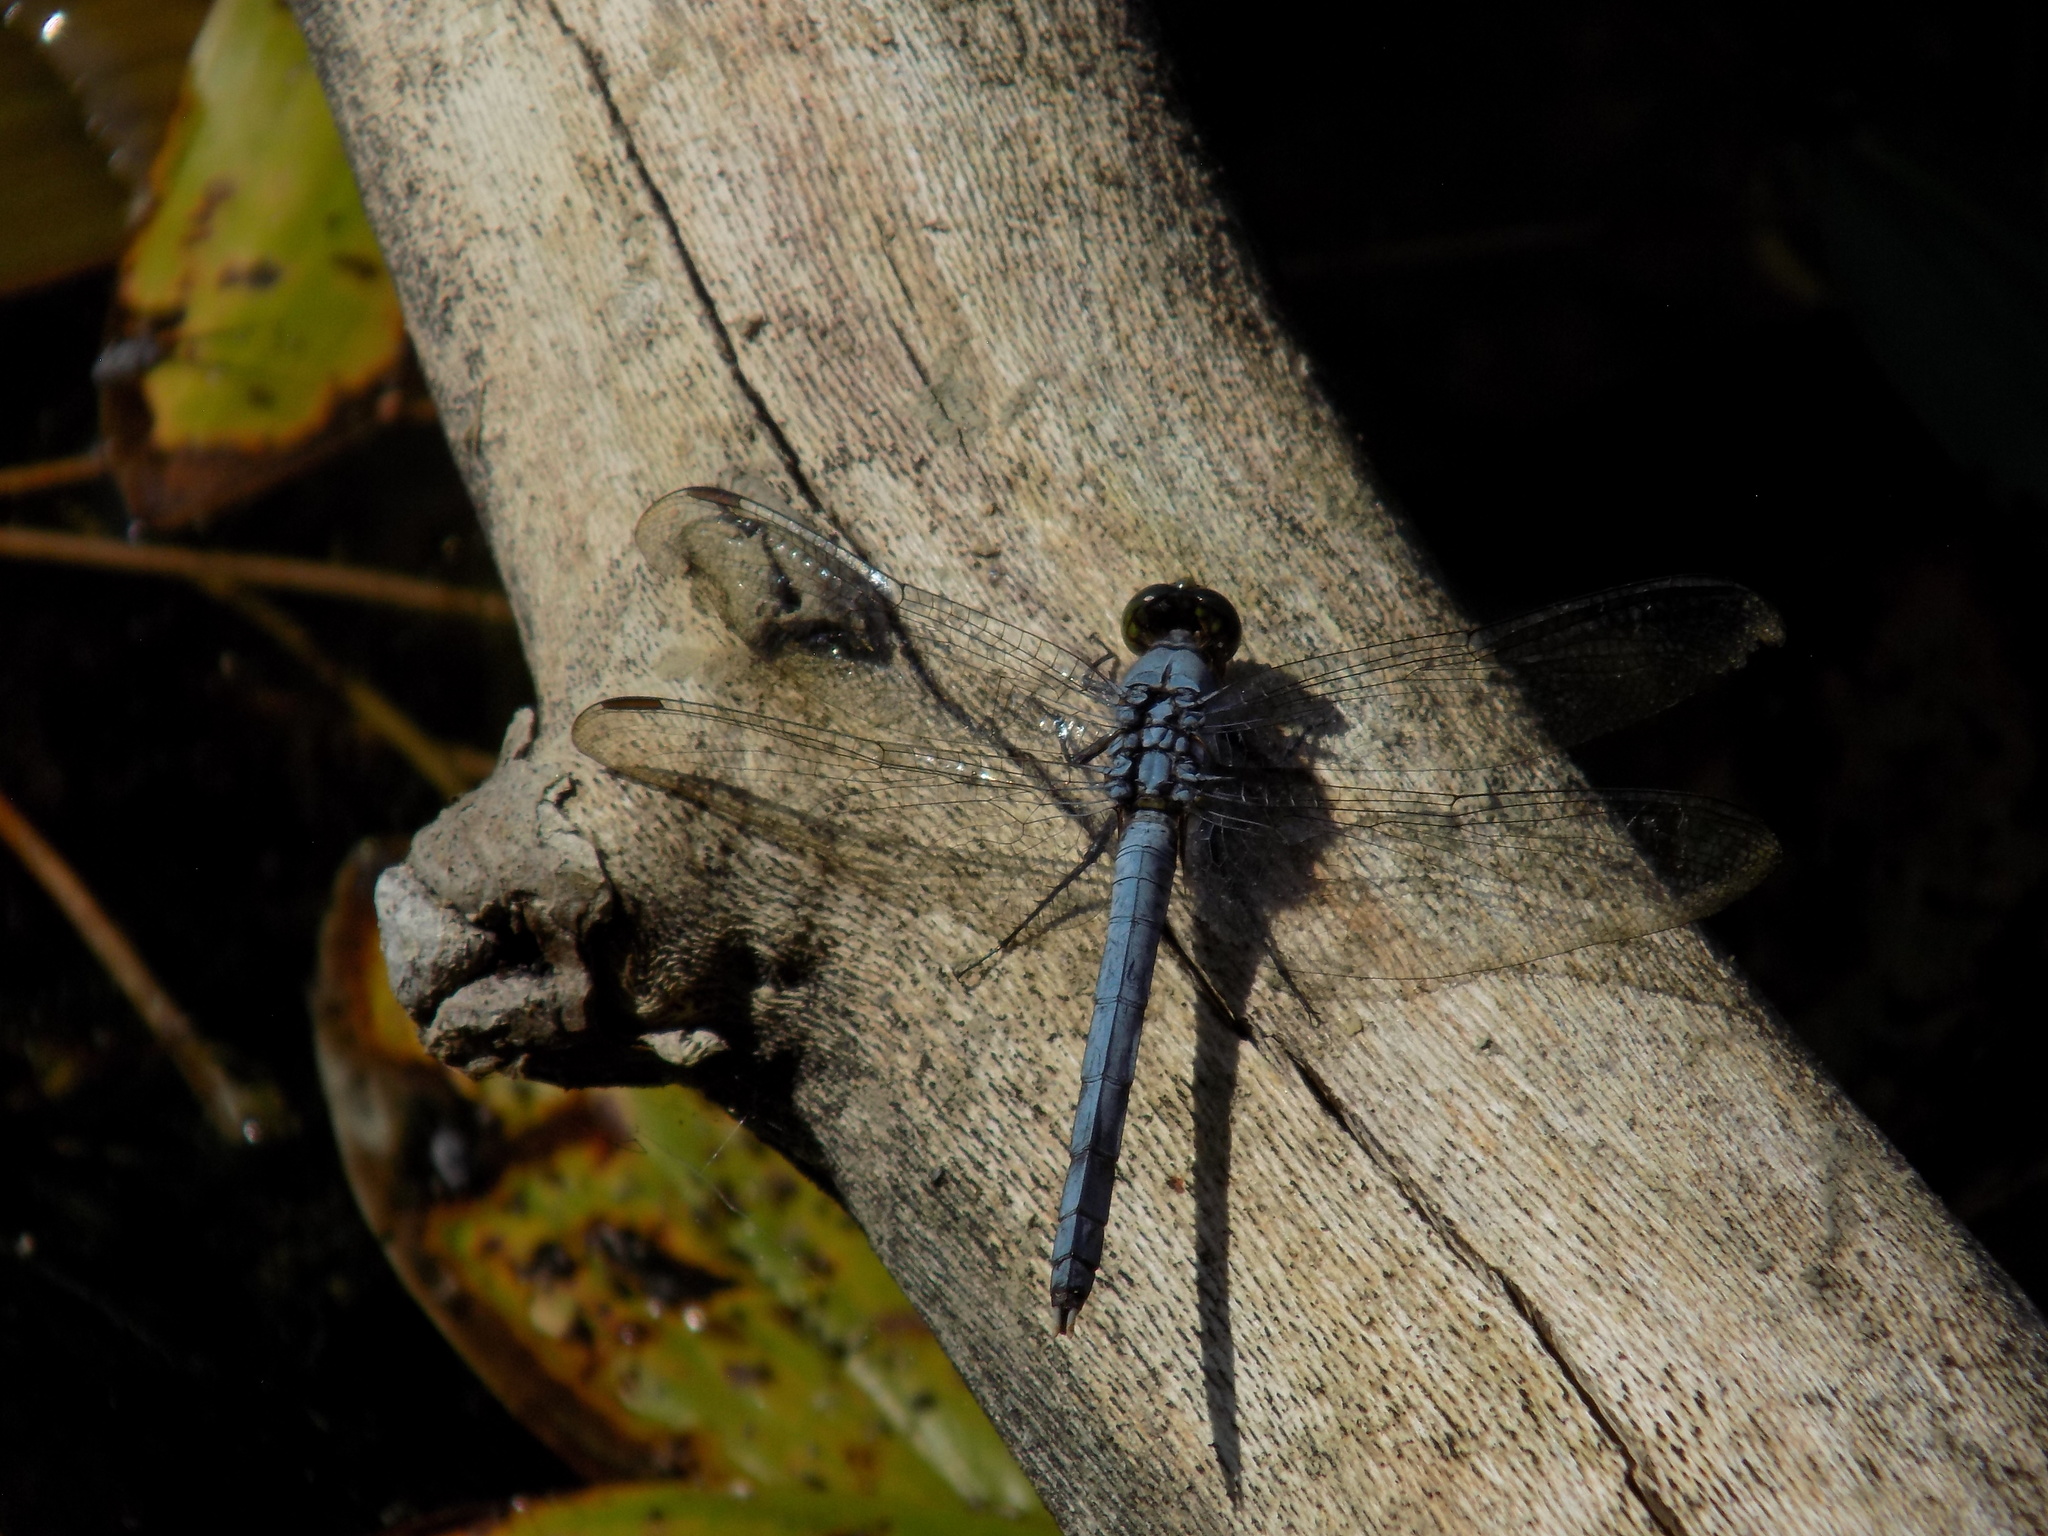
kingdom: Animalia
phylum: Arthropoda
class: Insecta
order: Odonata
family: Libellulidae
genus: Erythemis
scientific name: Erythemis simplicicollis
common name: Eastern pondhawk
